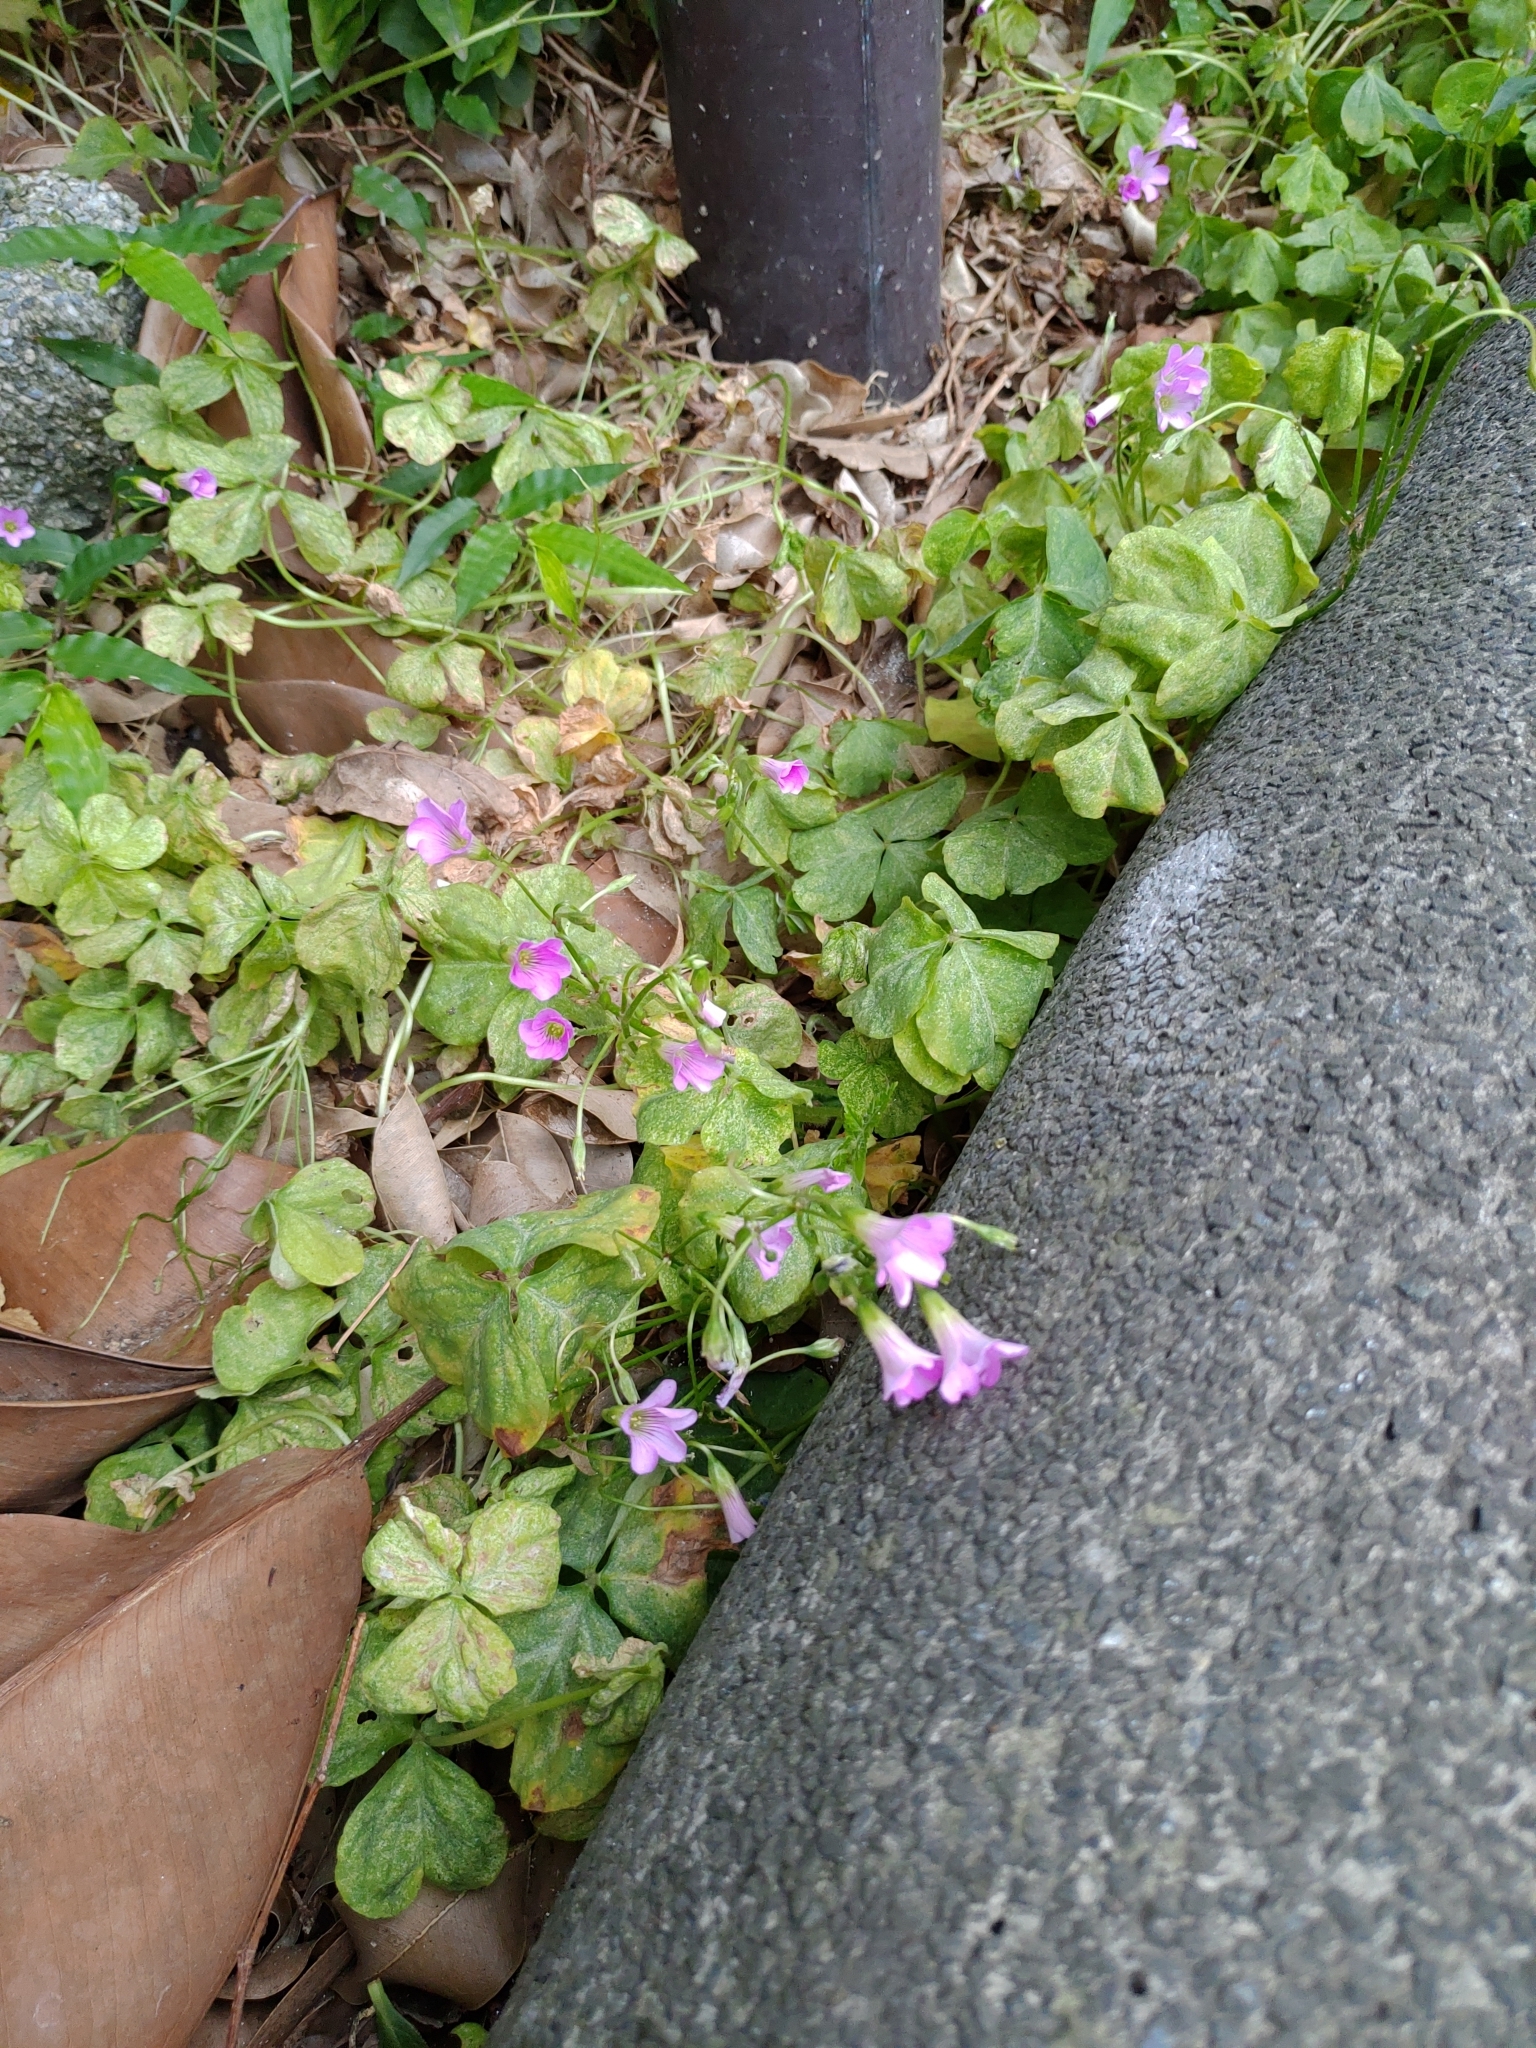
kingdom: Plantae
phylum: Tracheophyta
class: Magnoliopsida
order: Oxalidales
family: Oxalidaceae
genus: Oxalis
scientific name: Oxalis debilis
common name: Large-flowered pink-sorrel
